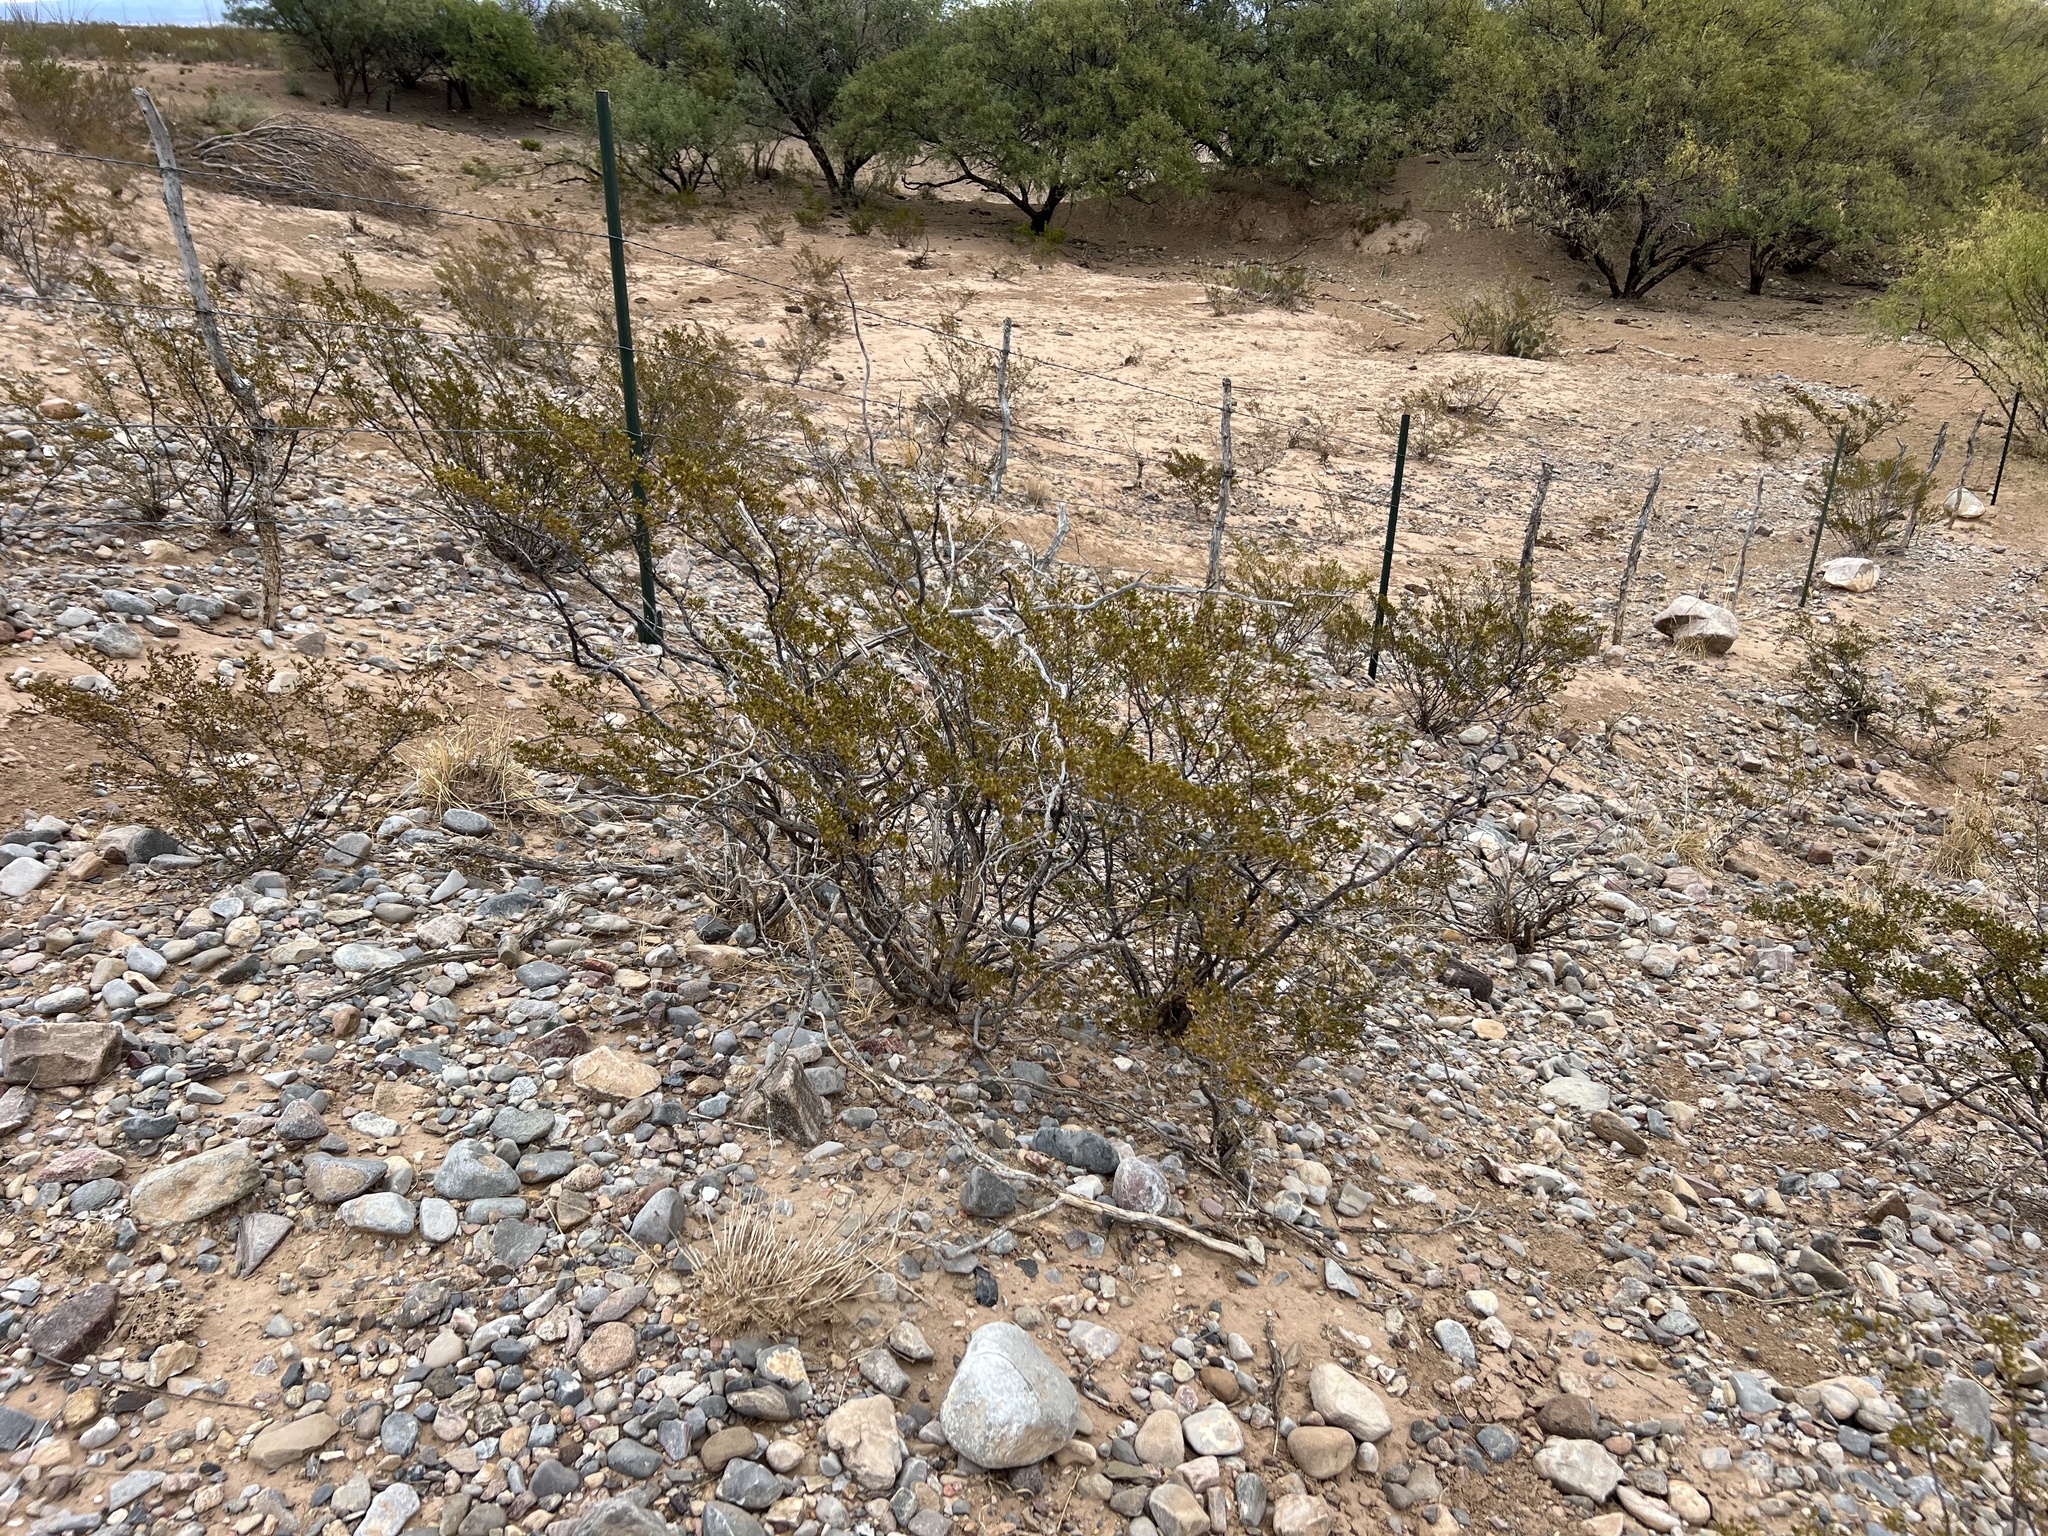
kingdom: Plantae
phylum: Tracheophyta
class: Magnoliopsida
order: Zygophyllales
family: Zygophyllaceae
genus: Larrea
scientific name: Larrea tridentata
